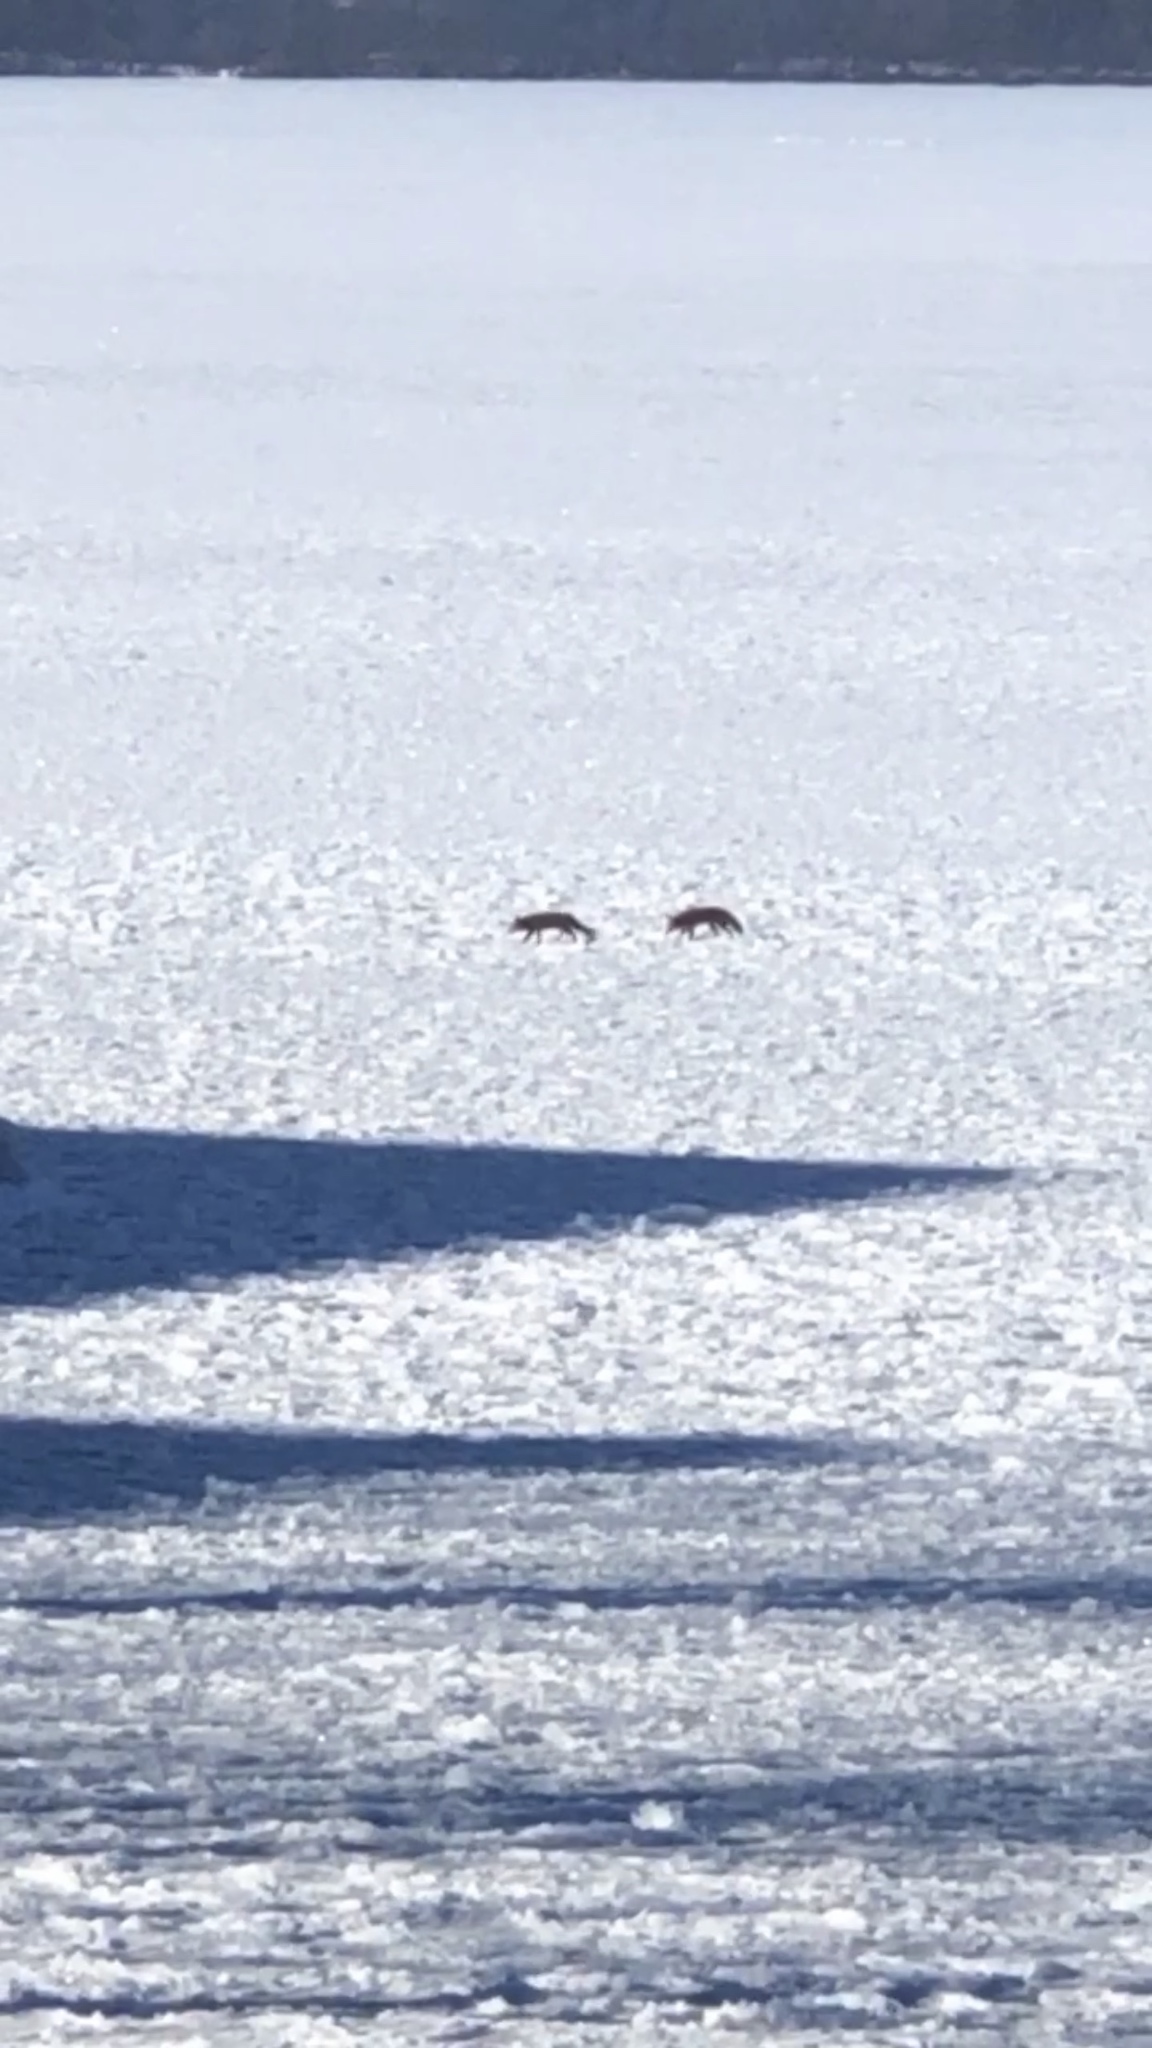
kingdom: Animalia
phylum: Chordata
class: Mammalia
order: Carnivora
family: Canidae
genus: Vulpes
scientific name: Vulpes vulpes
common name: Red fox
